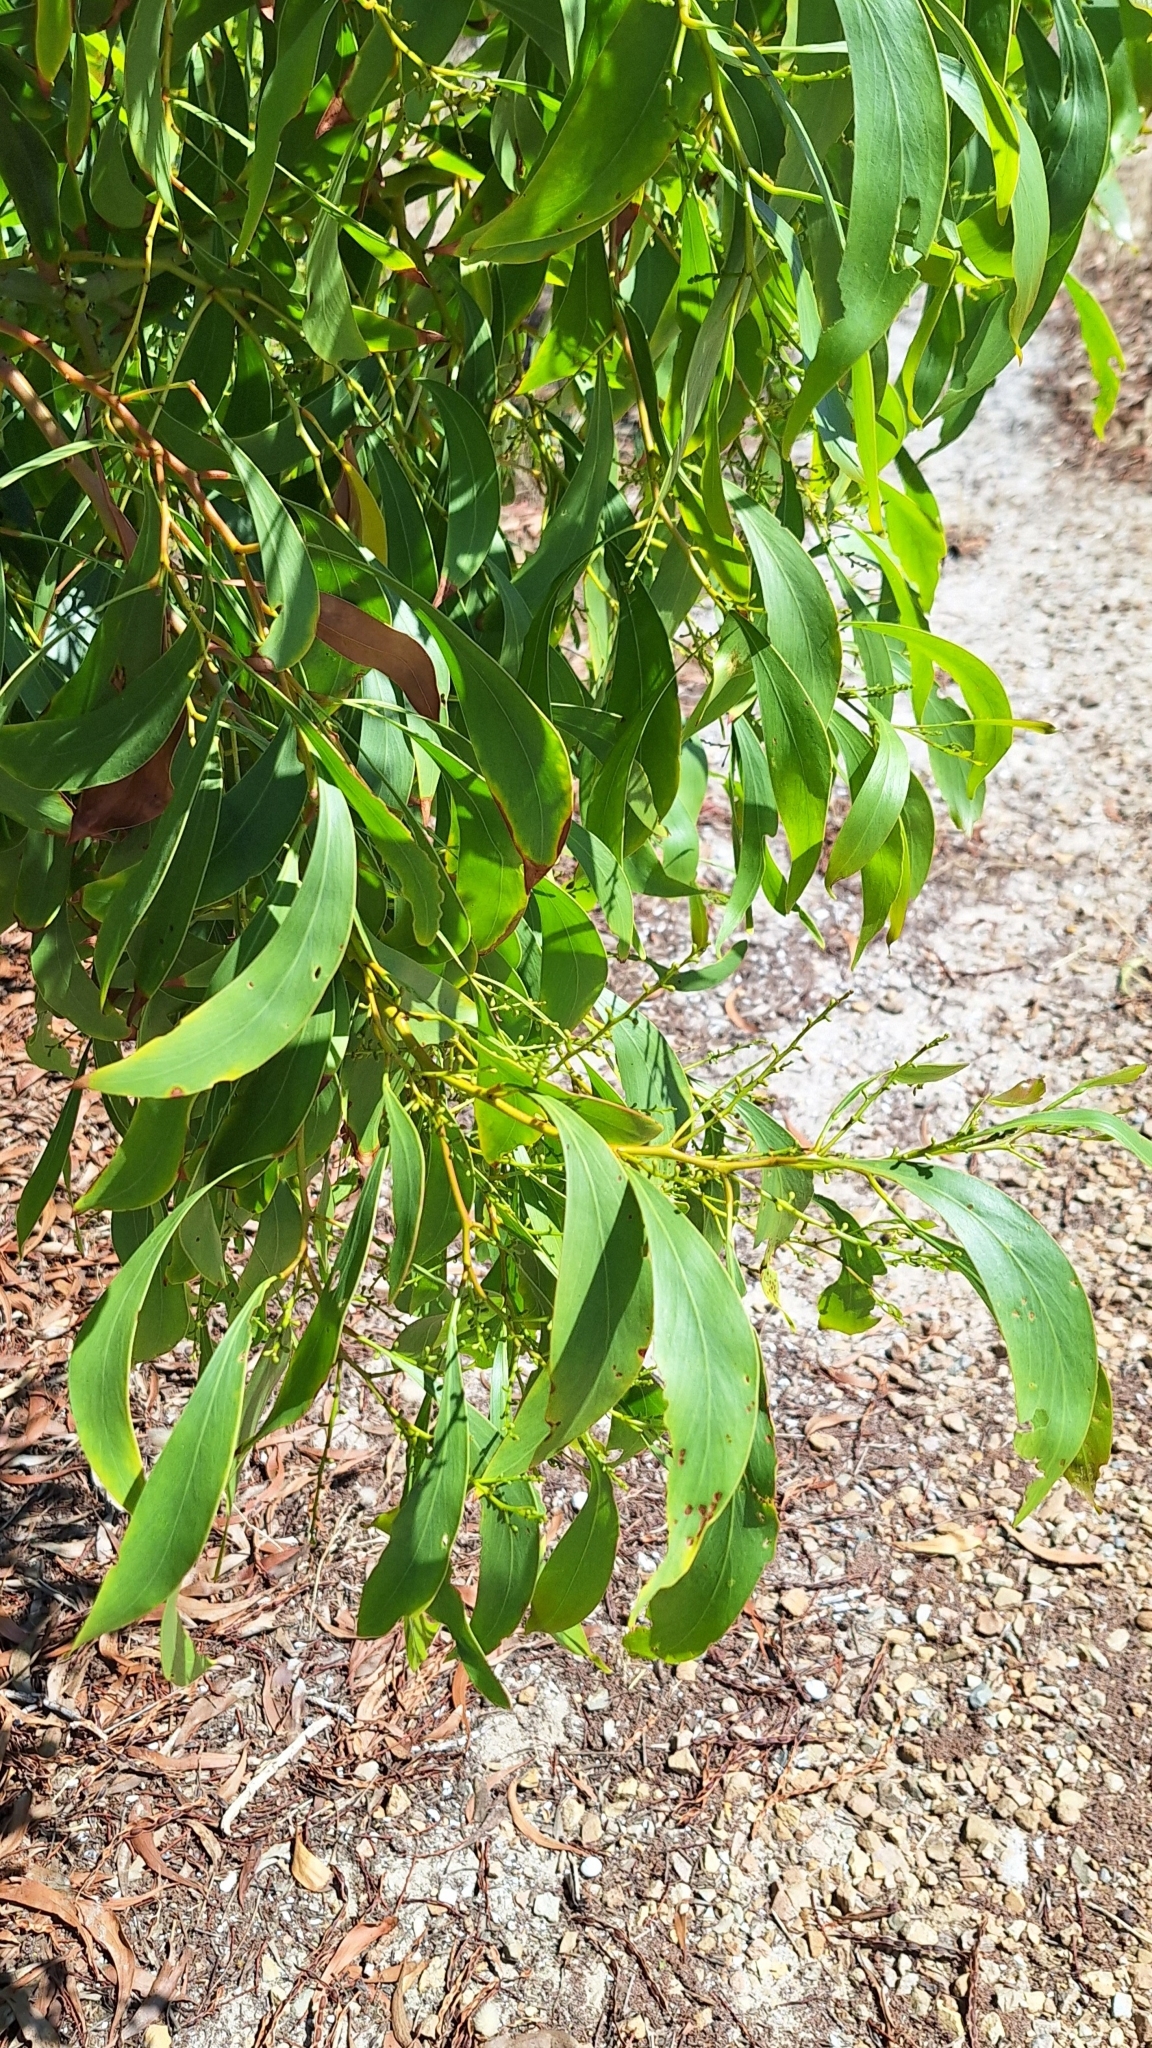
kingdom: Plantae
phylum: Tracheophyta
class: Magnoliopsida
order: Fabales
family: Fabaceae
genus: Acacia
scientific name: Acacia pycnantha
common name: Golden wattle
